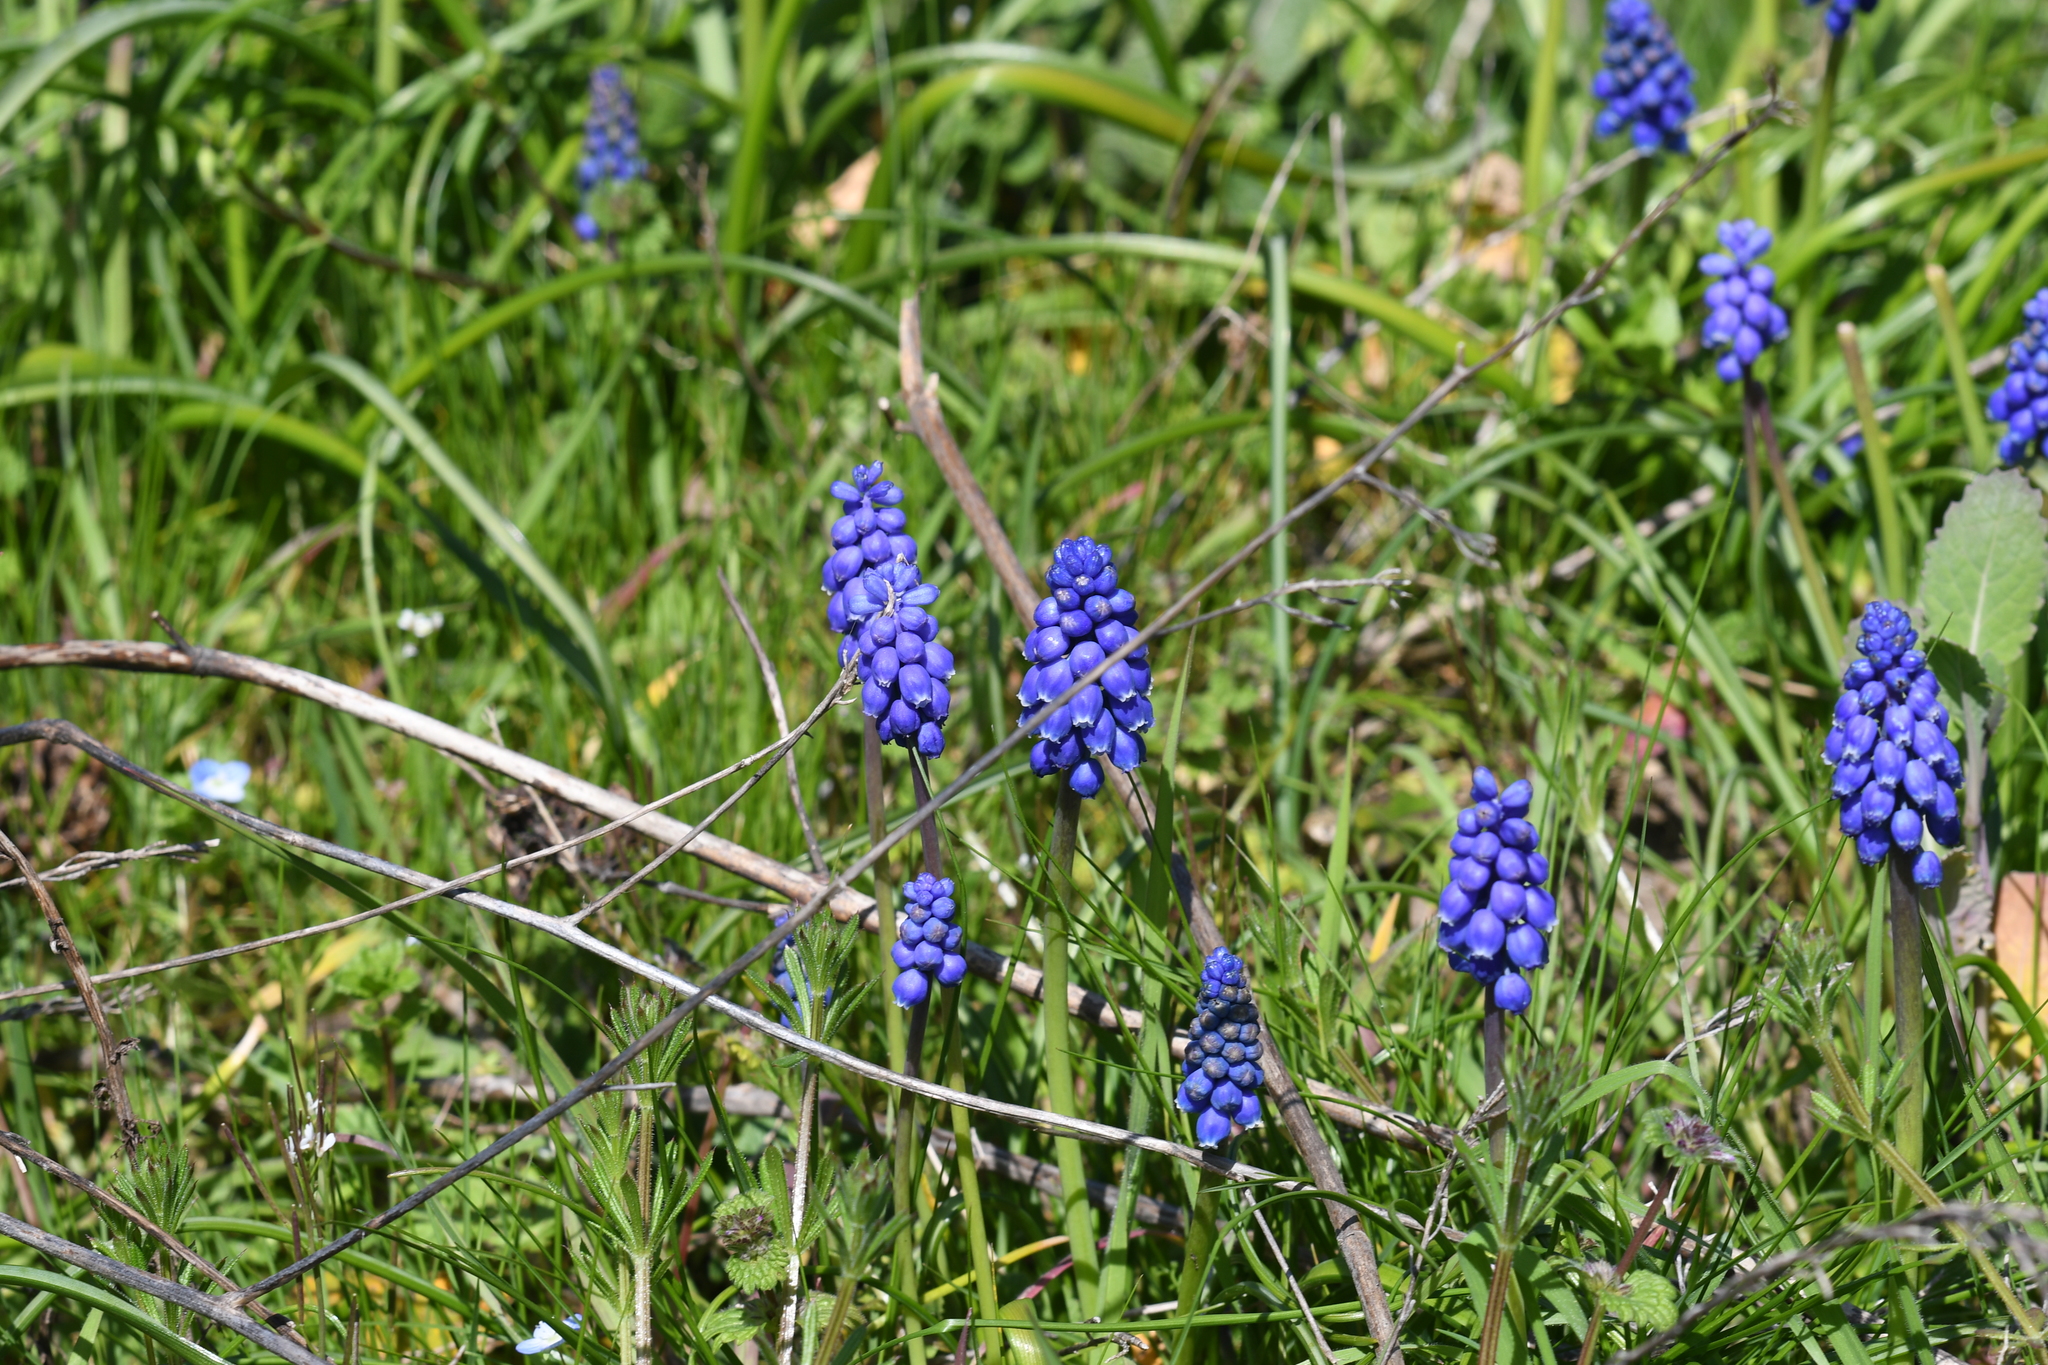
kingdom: Plantae
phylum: Tracheophyta
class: Liliopsida
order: Asparagales
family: Asparagaceae
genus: Muscari
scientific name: Muscari armeniacum
